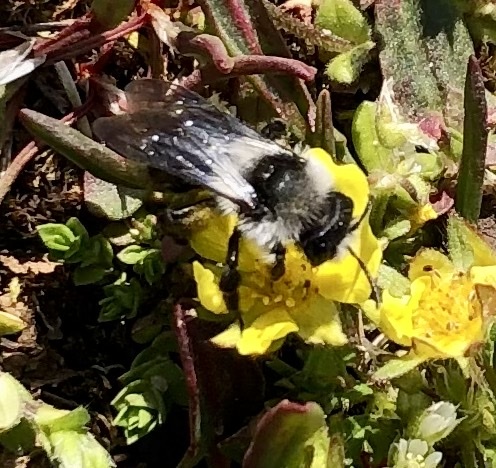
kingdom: Animalia
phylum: Arthropoda
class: Insecta
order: Hymenoptera
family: Andrenidae
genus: Andrena
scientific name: Andrena cineraria
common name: Ashy mining bee
